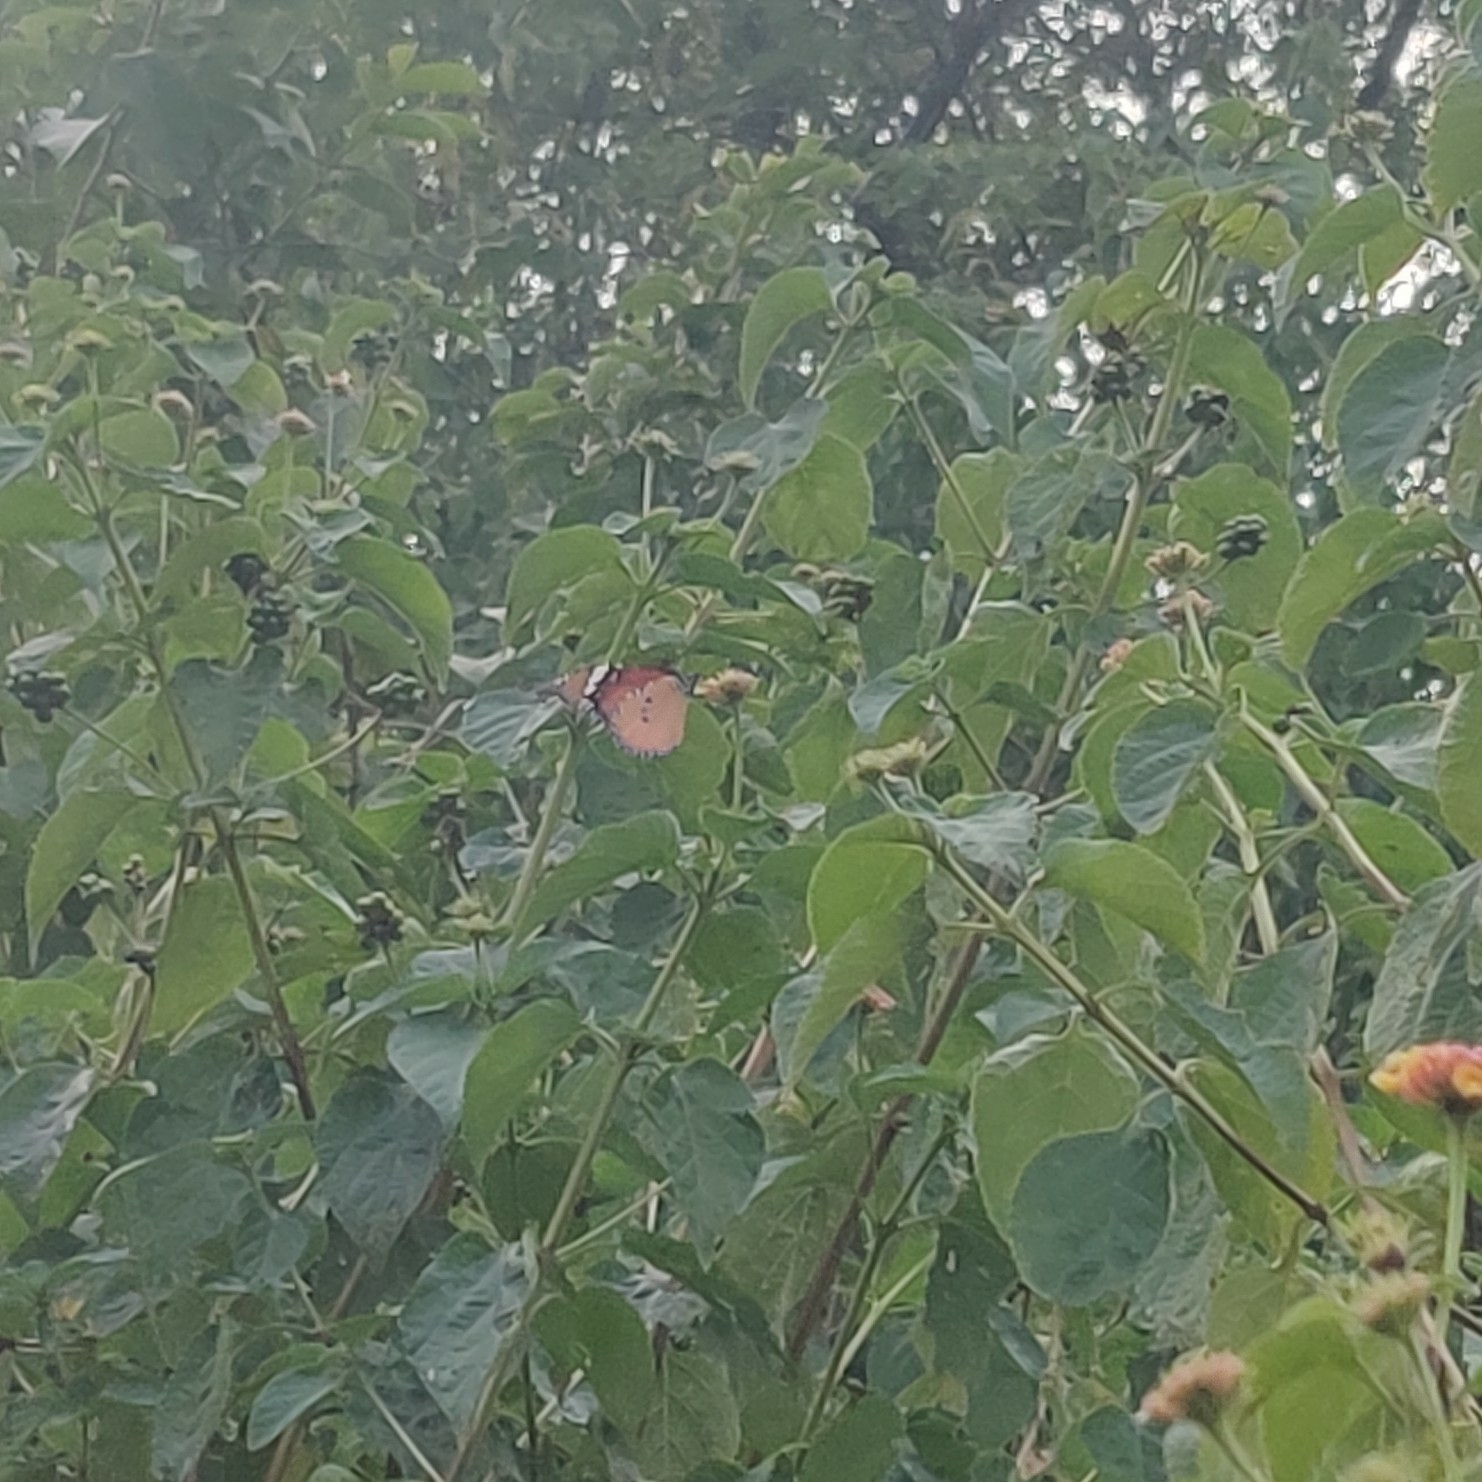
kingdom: Animalia
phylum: Arthropoda
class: Insecta
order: Lepidoptera
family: Nymphalidae
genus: Danaus
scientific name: Danaus chrysippus
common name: Plain tiger
